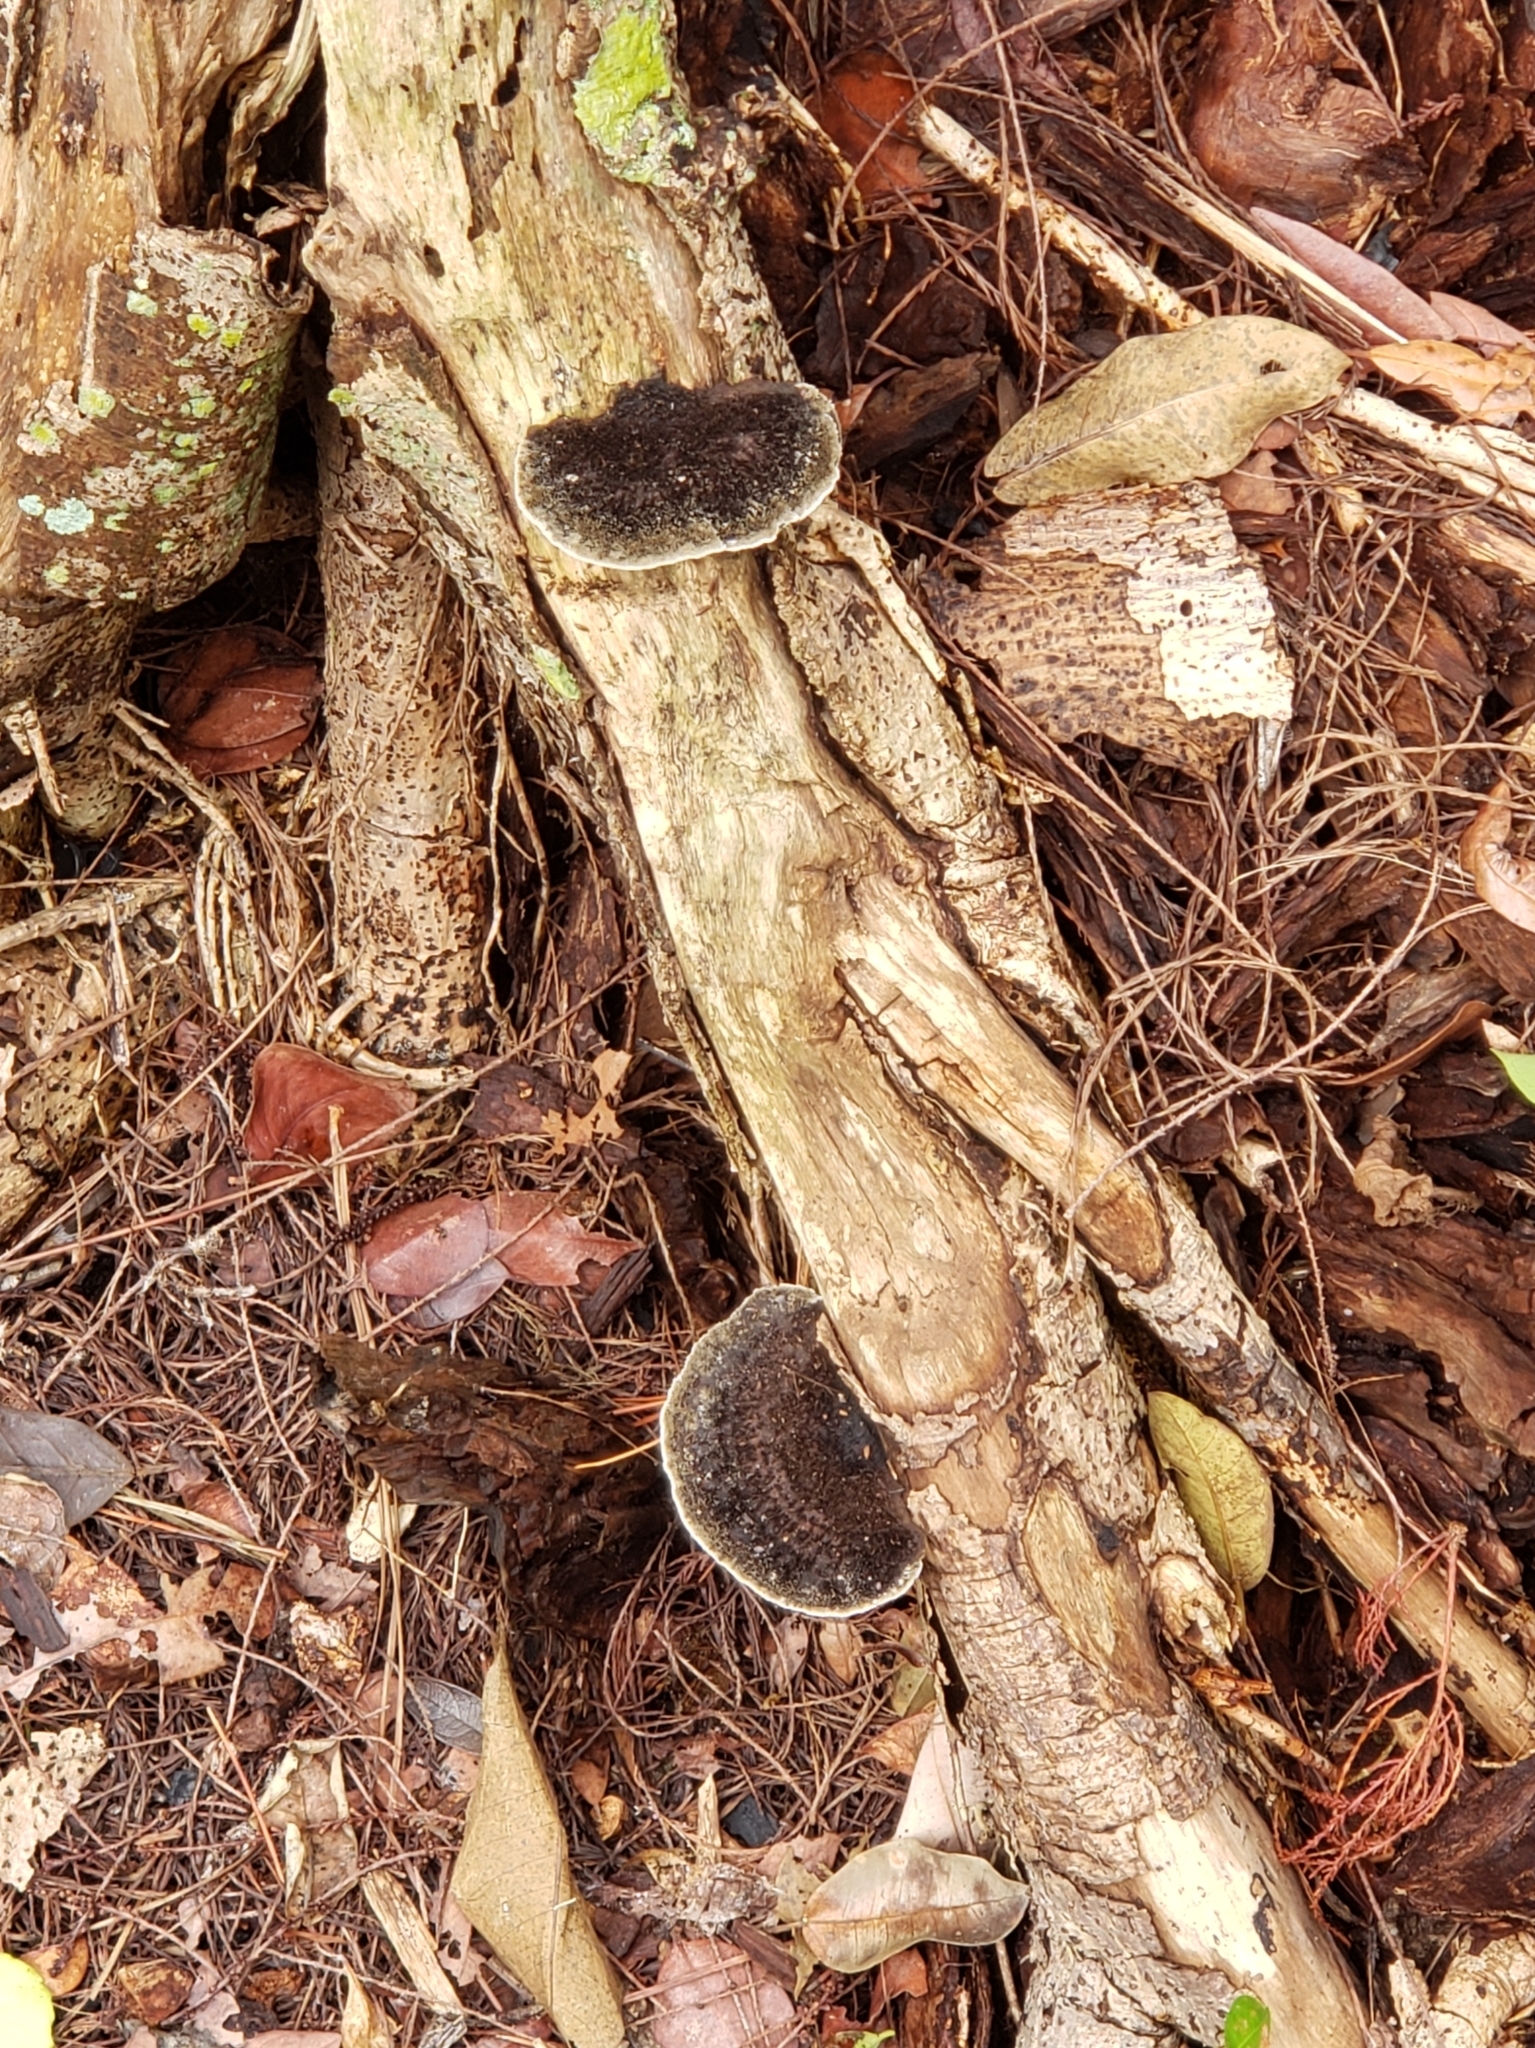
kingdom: Fungi
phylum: Basidiomycota
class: Agaricomycetes
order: Polyporales
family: Cerrenaceae
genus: Cerrena
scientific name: Cerrena hydnoides
